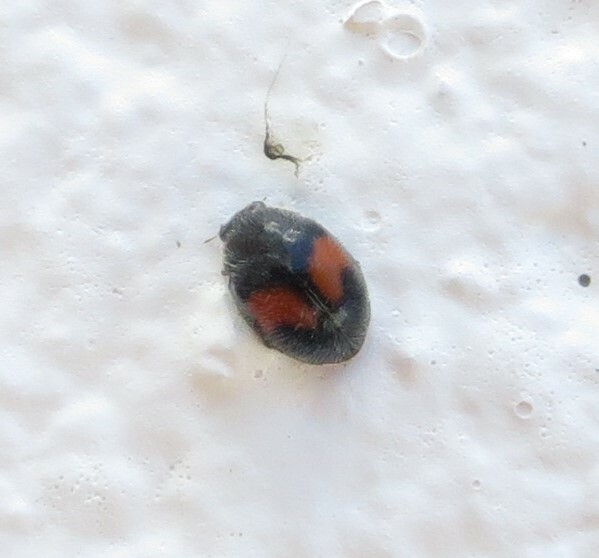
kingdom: Animalia
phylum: Arthropoda
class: Insecta
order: Coleoptera
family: Coccinellidae
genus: Scymnus
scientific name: Scymnus notescens
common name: Minute two-spotted ladybird beetle
